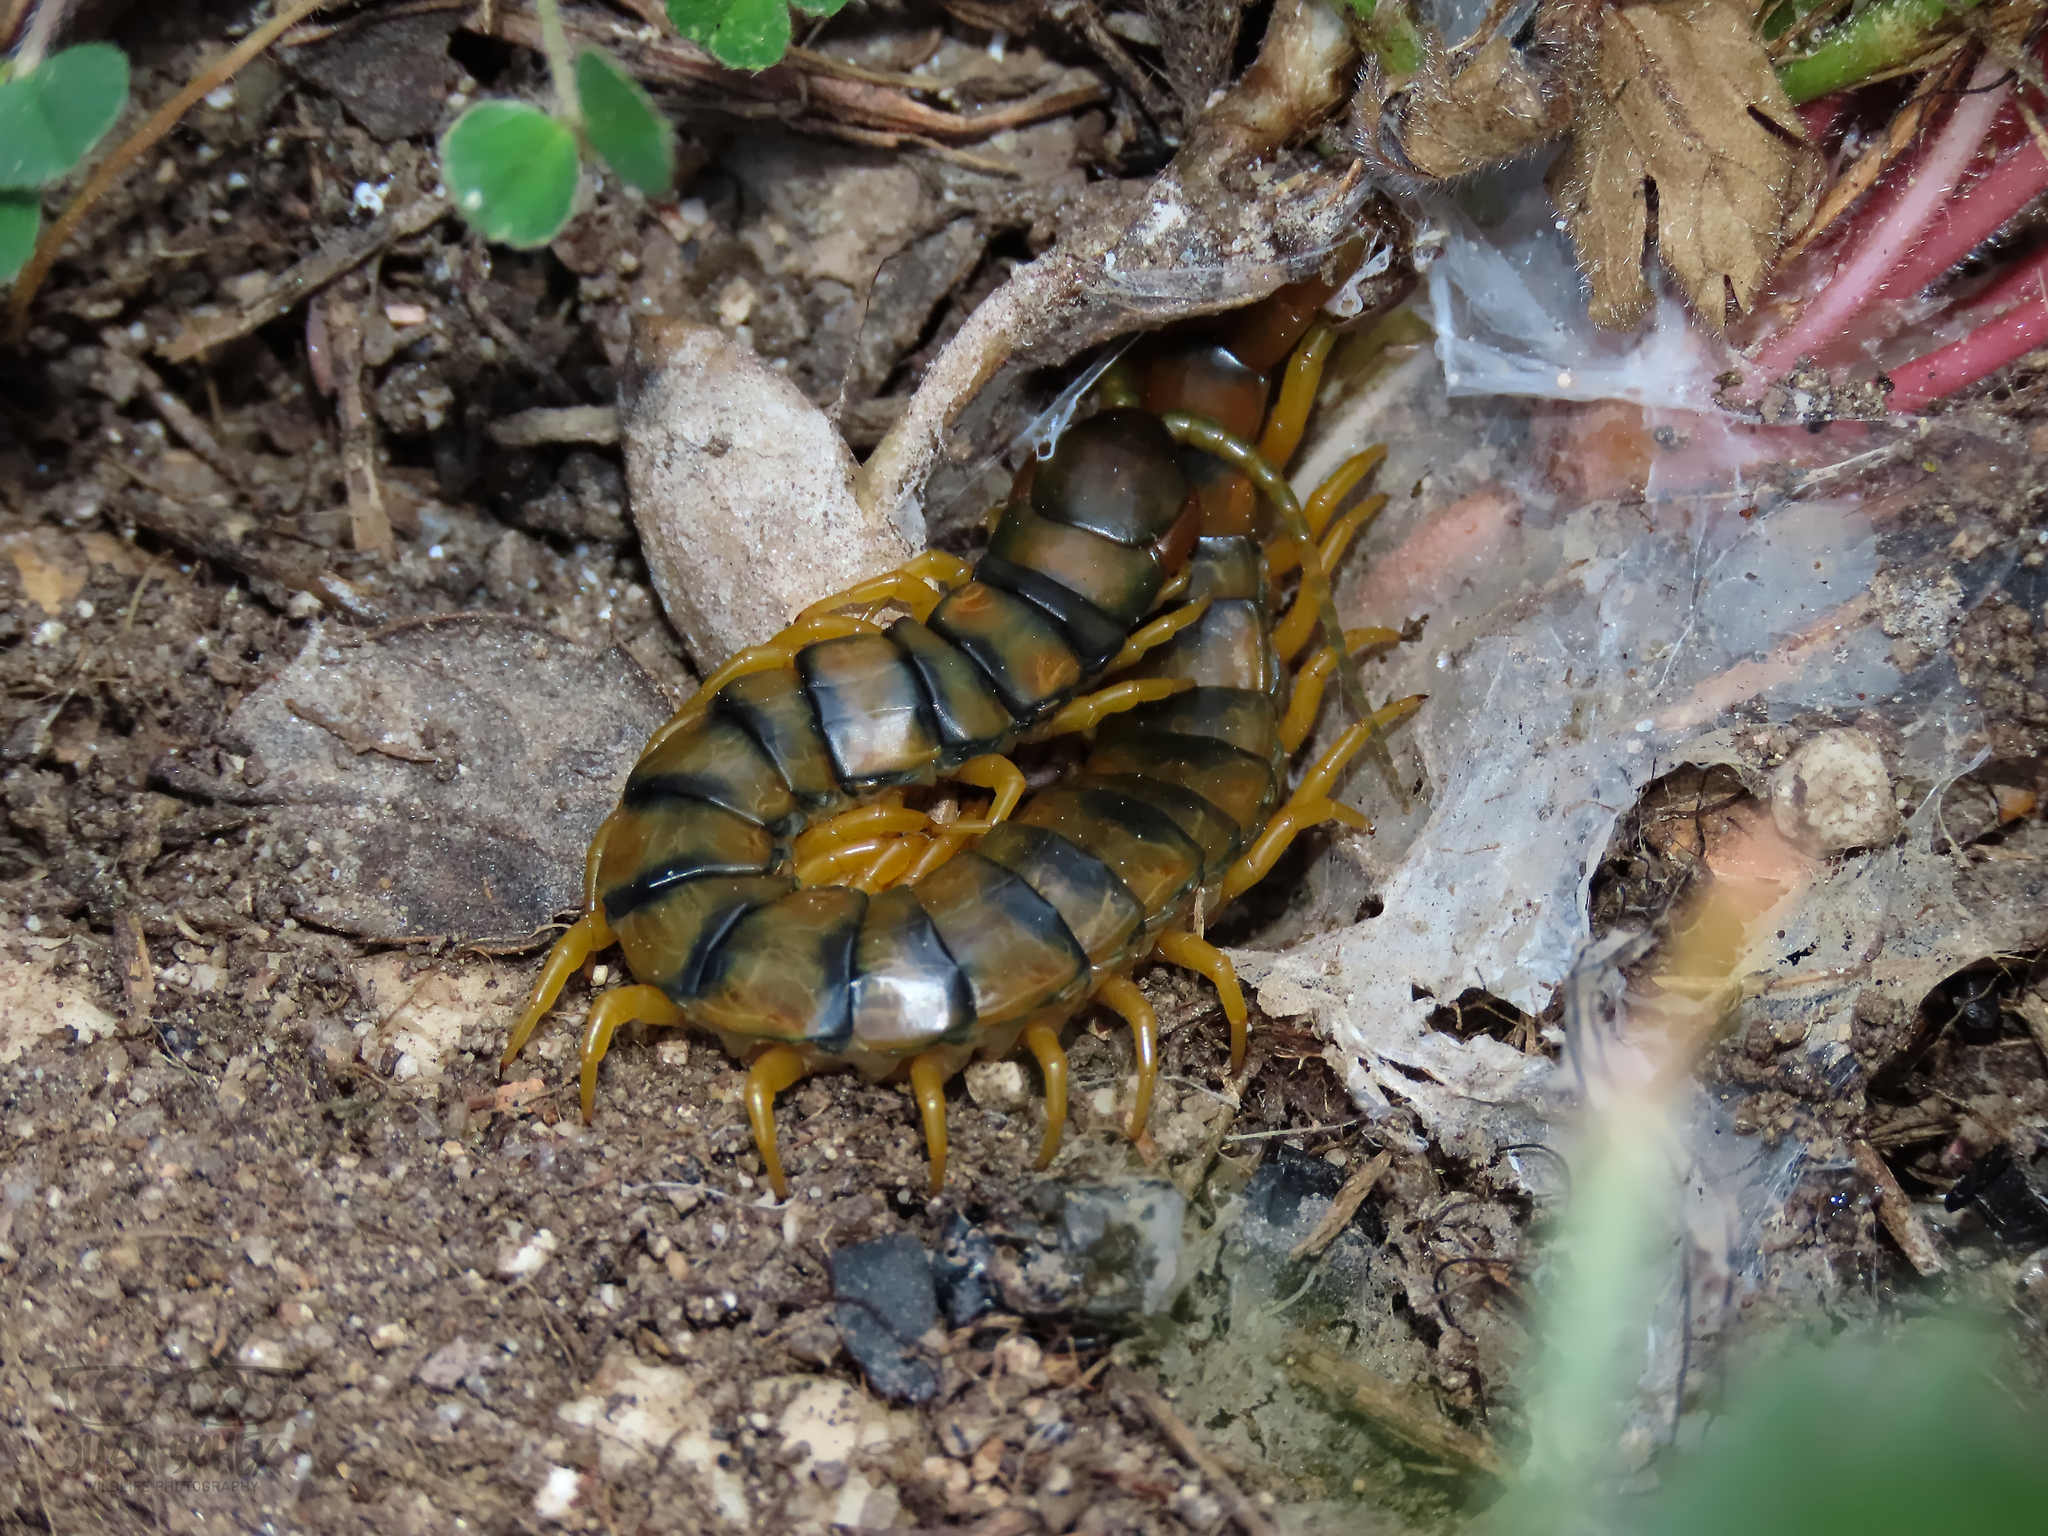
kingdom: Animalia
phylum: Arthropoda
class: Chilopoda
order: Scolopendromorpha
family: Scolopendridae
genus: Scolopendra
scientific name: Scolopendra cingulata
